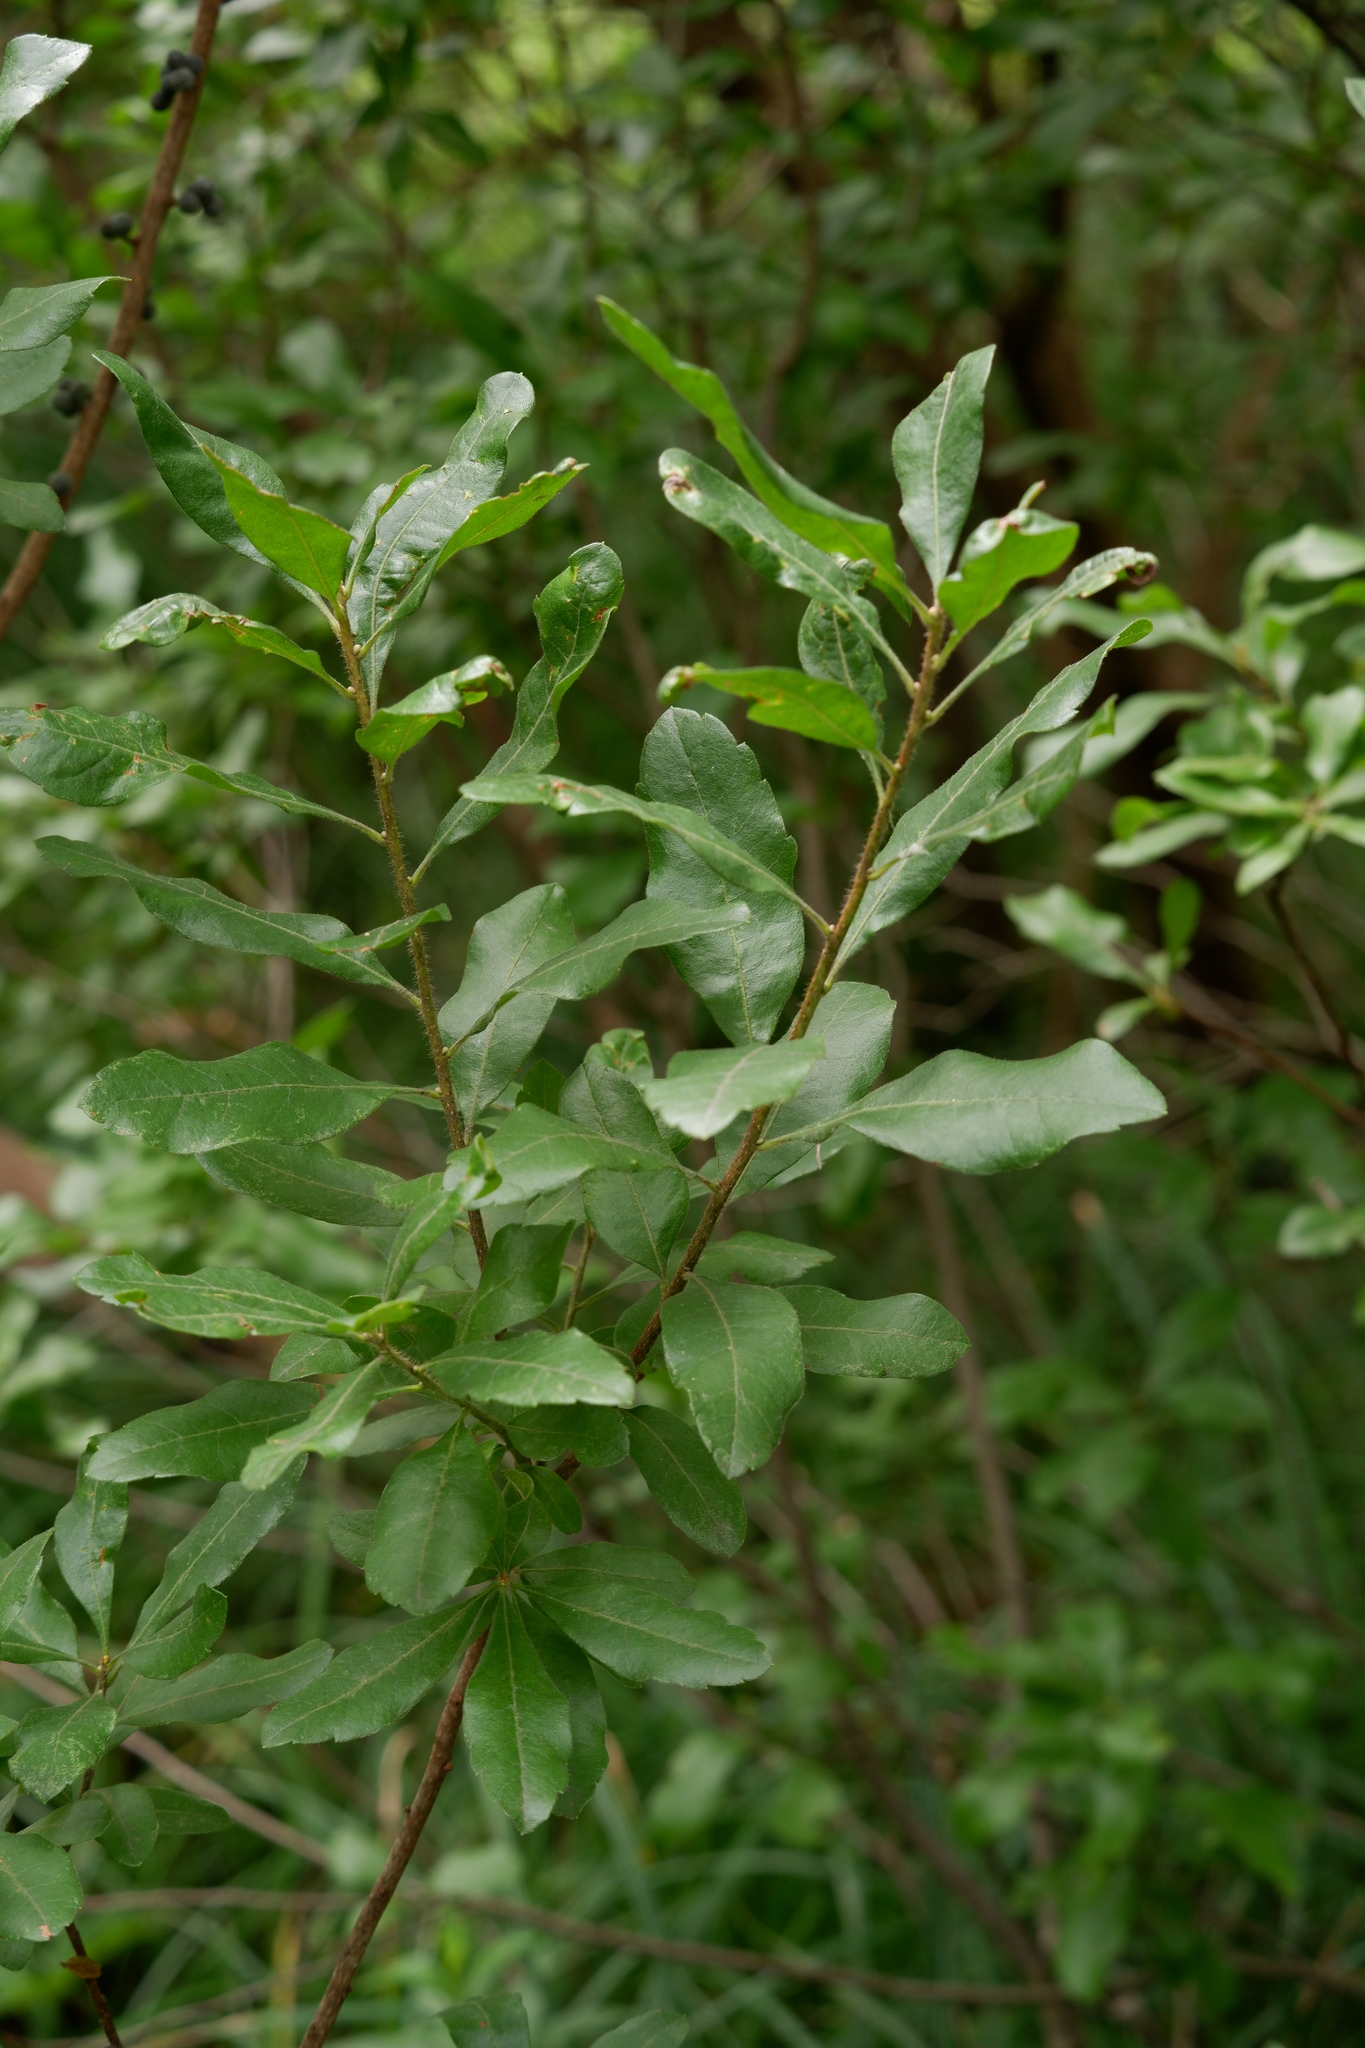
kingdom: Plantae
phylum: Tracheophyta
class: Magnoliopsida
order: Fagales
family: Myricaceae
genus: Morella
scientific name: Morella pensylvanica
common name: Northern bayberry
